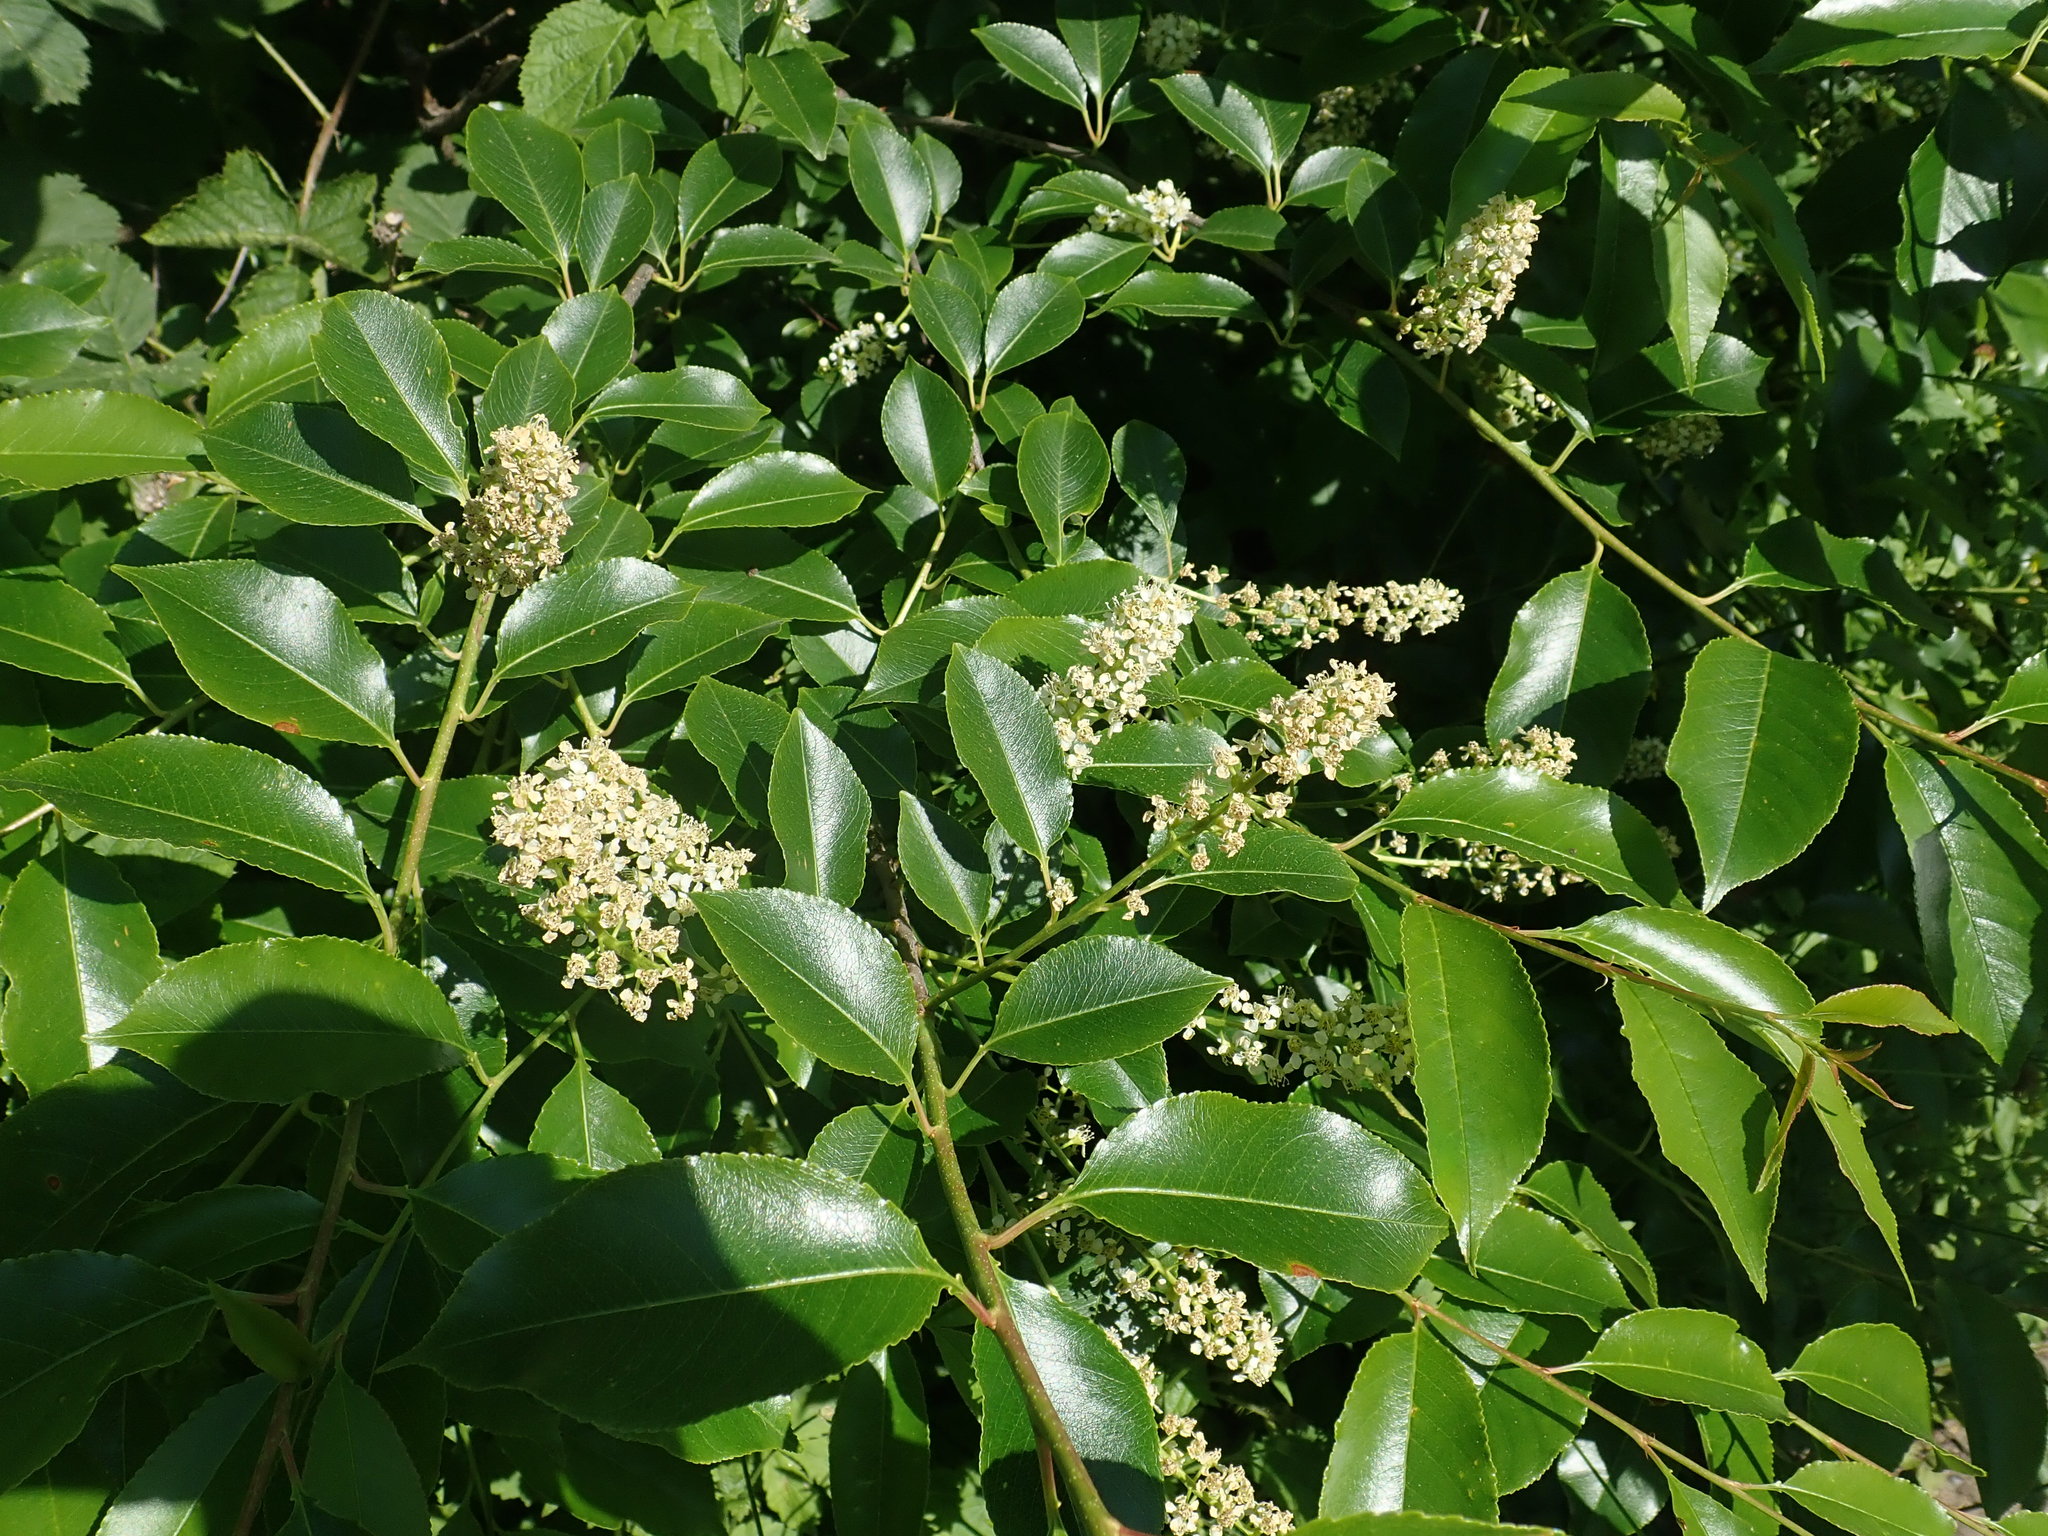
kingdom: Plantae
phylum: Tracheophyta
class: Magnoliopsida
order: Rosales
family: Rosaceae
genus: Prunus
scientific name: Prunus serotina
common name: Black cherry
